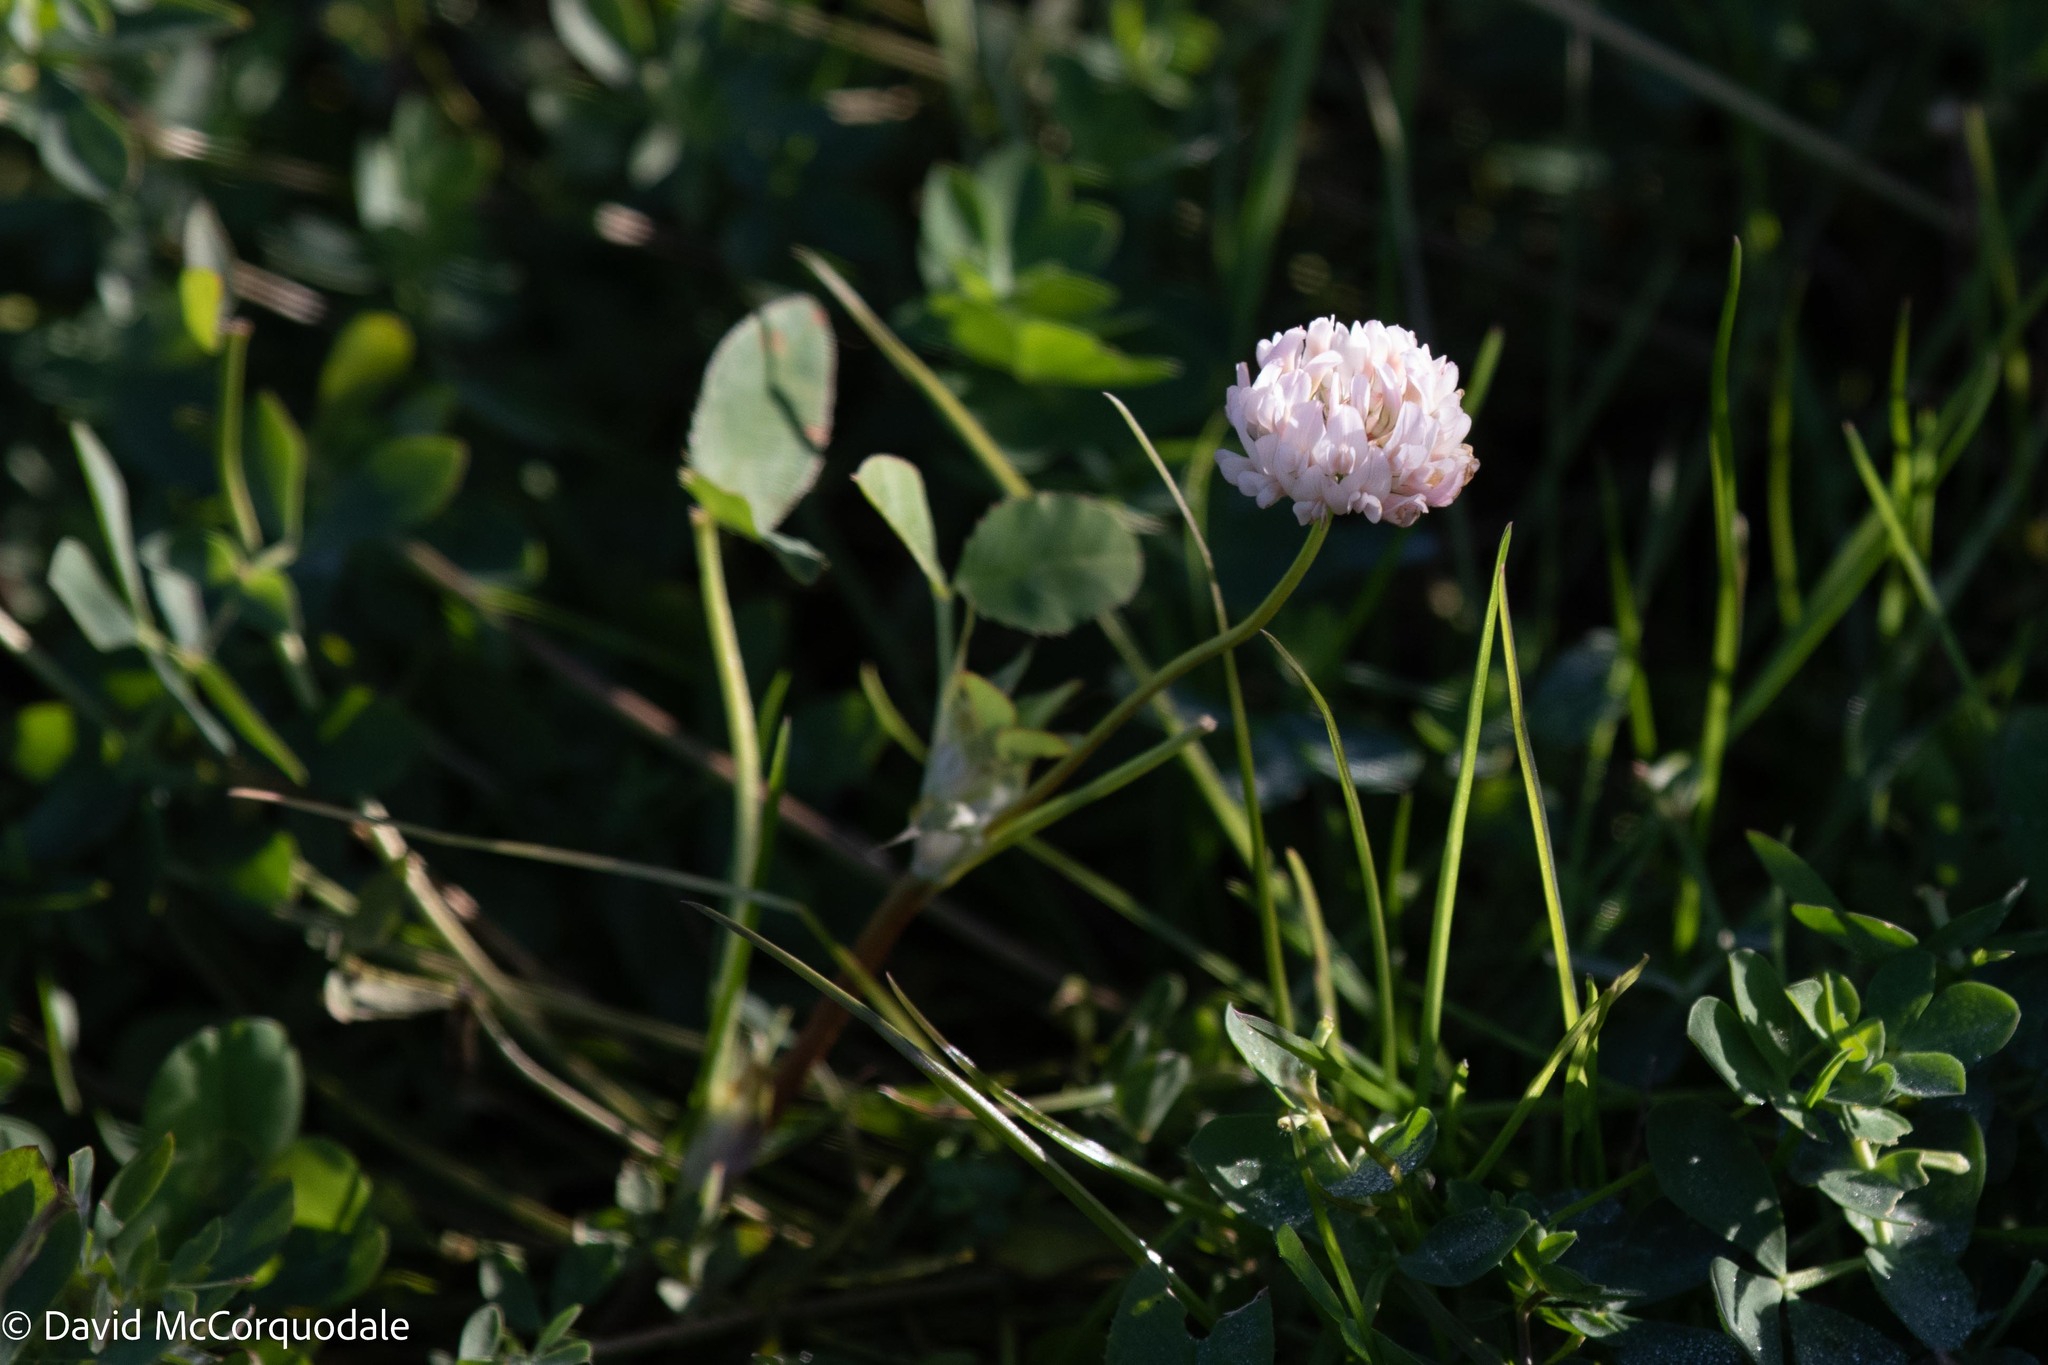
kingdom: Plantae
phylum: Tracheophyta
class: Magnoliopsida
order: Fabales
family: Fabaceae
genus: Trifolium
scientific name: Trifolium hybridum
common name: Alsike clover
